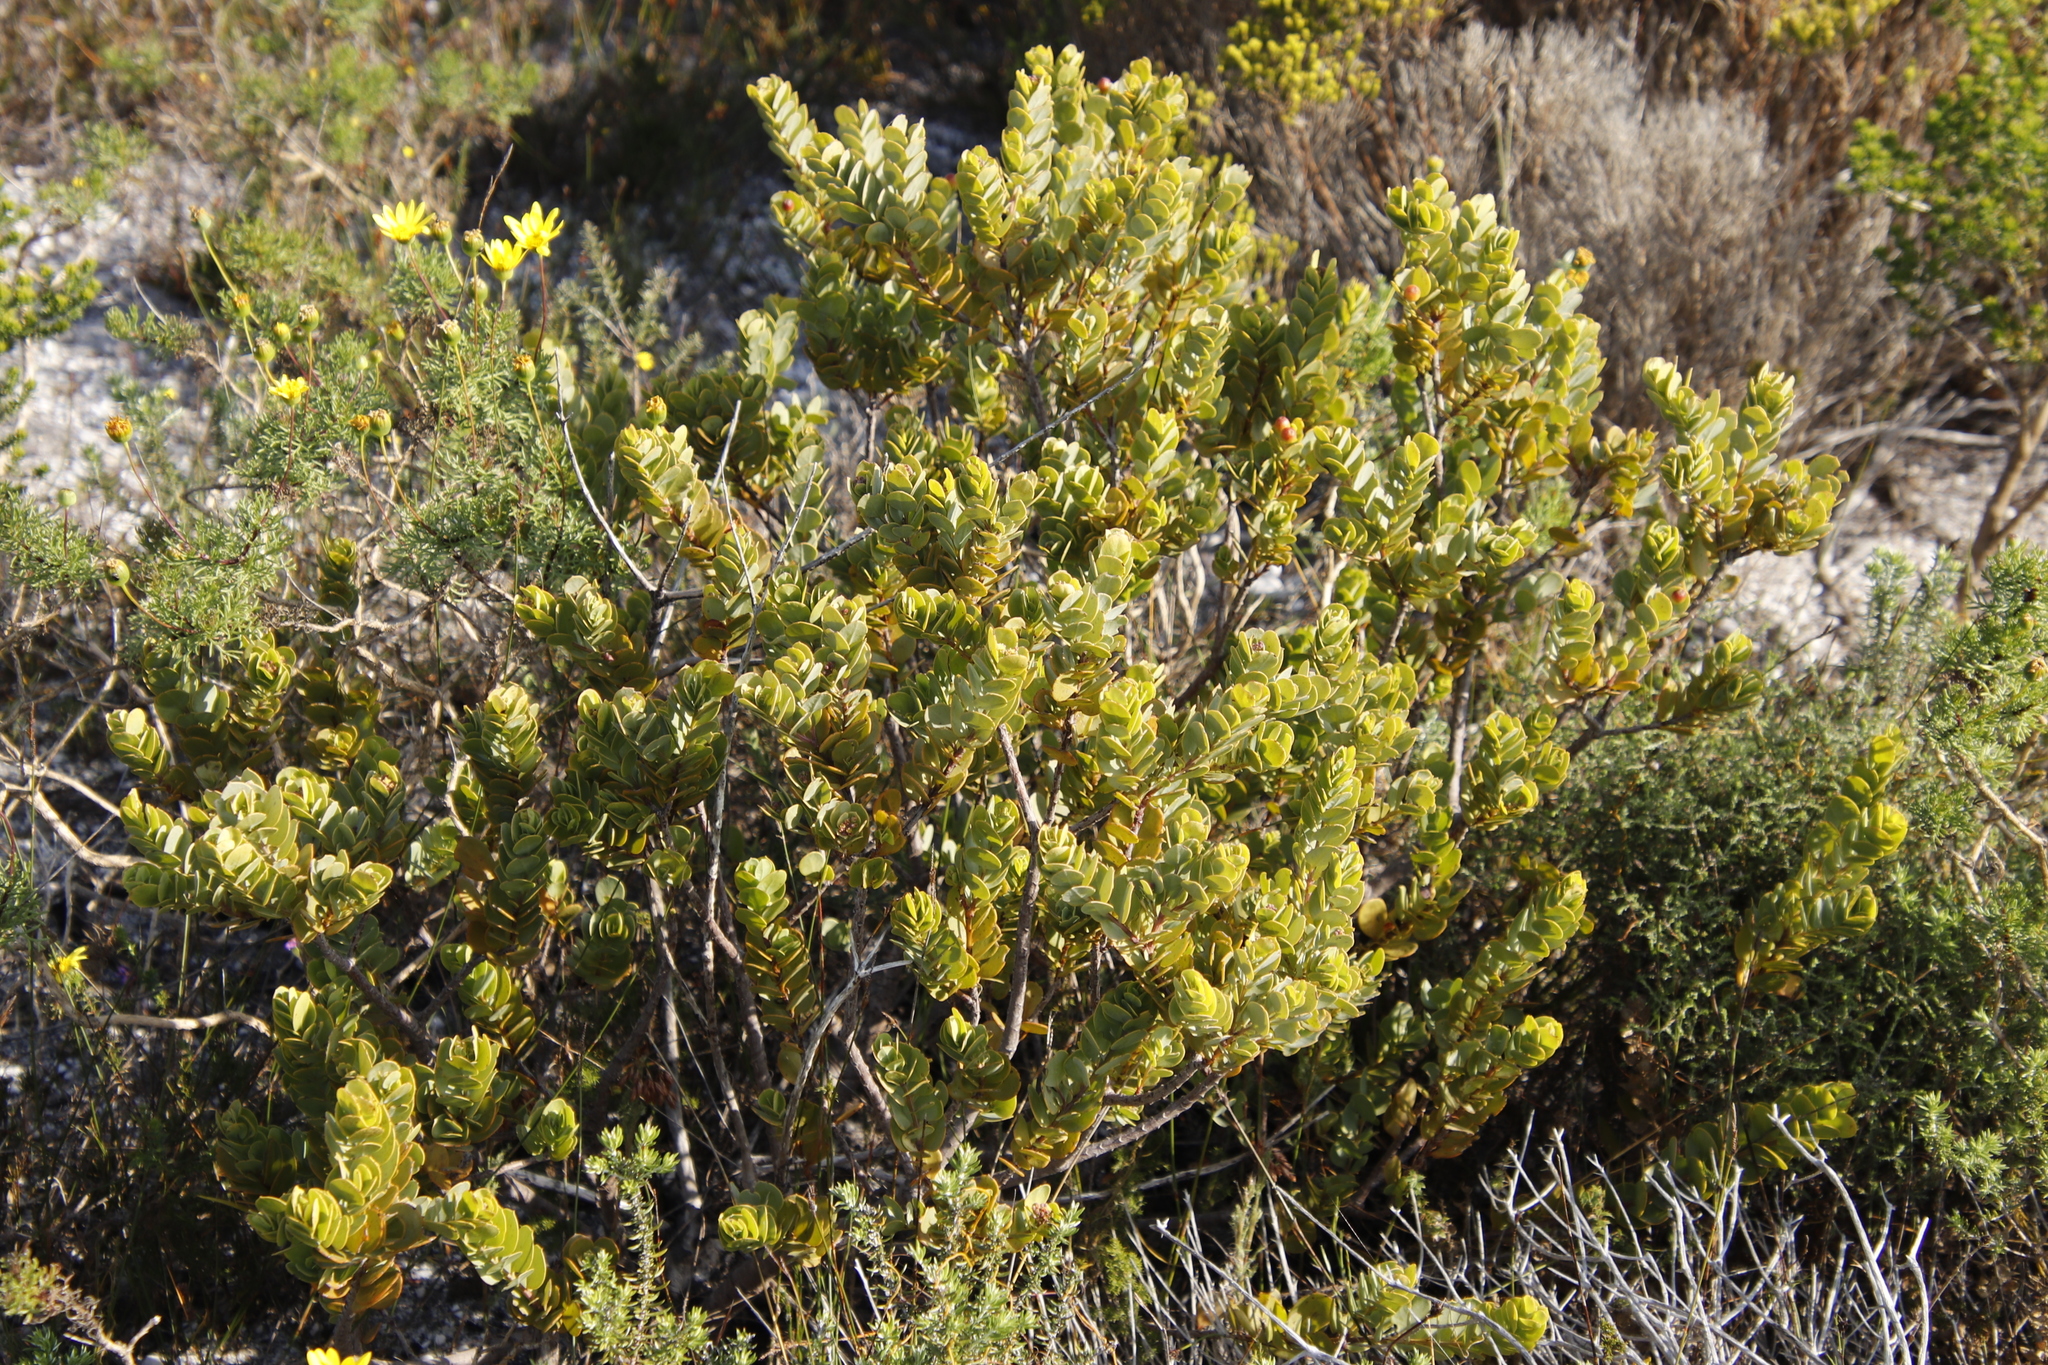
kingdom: Plantae
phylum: Tracheophyta
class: Magnoliopsida
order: Santalales
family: Santalaceae
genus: Osyris
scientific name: Osyris compressa
